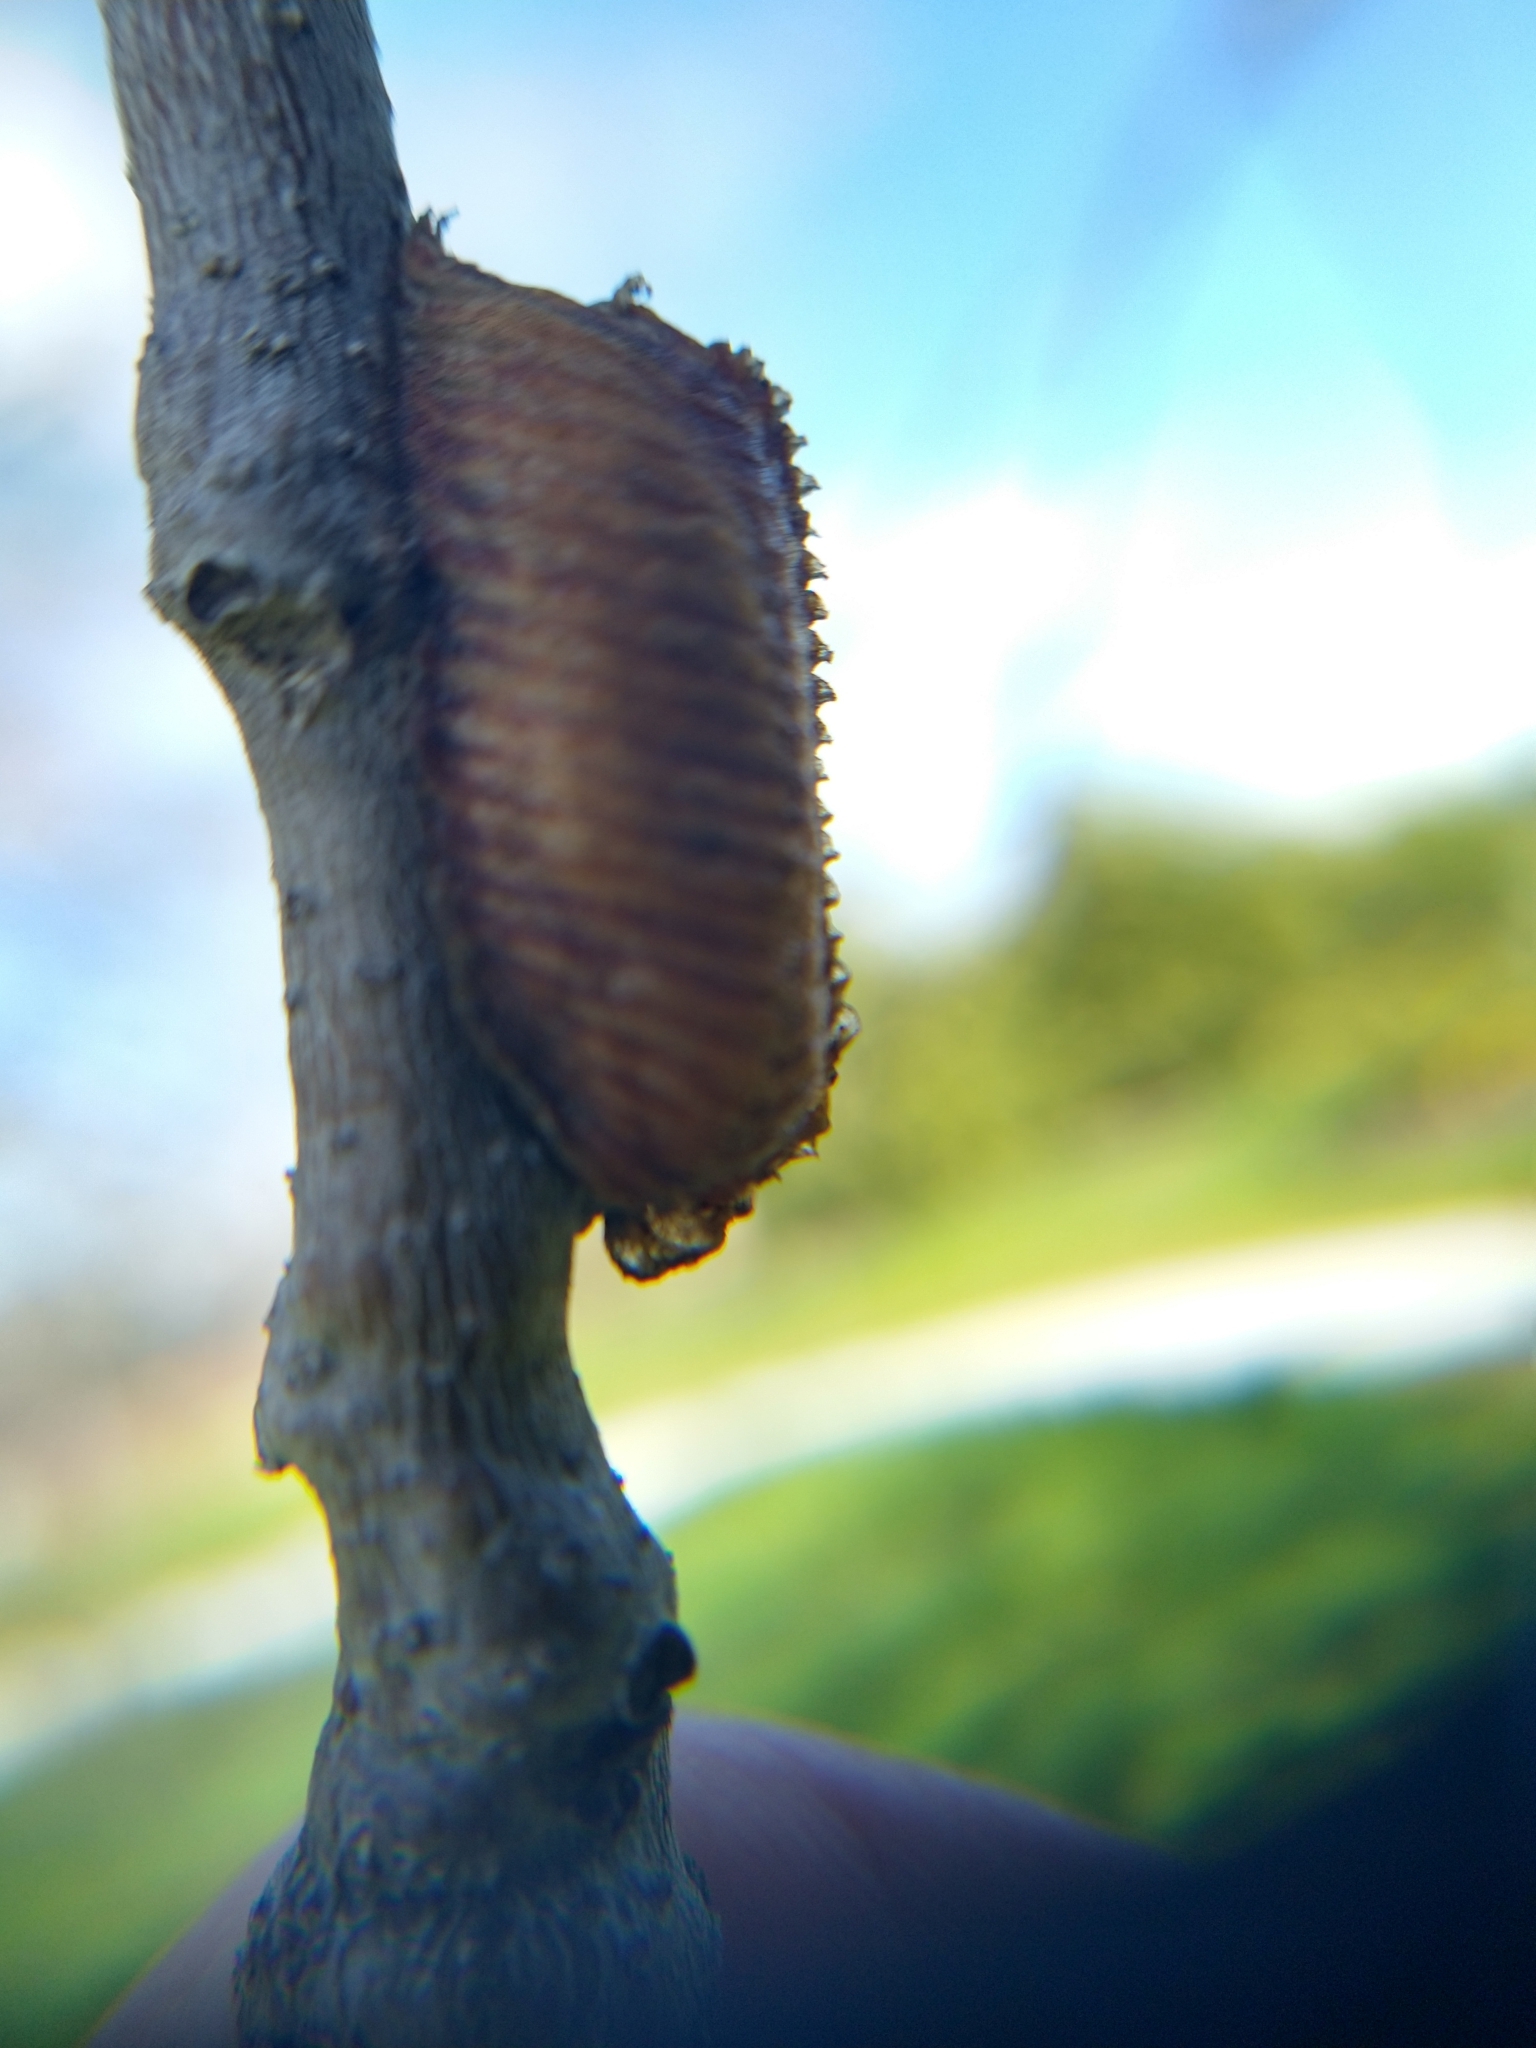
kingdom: Animalia
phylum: Arthropoda
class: Insecta
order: Mantodea
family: Mantidae
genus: Stagmomantis
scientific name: Stagmomantis limbata
